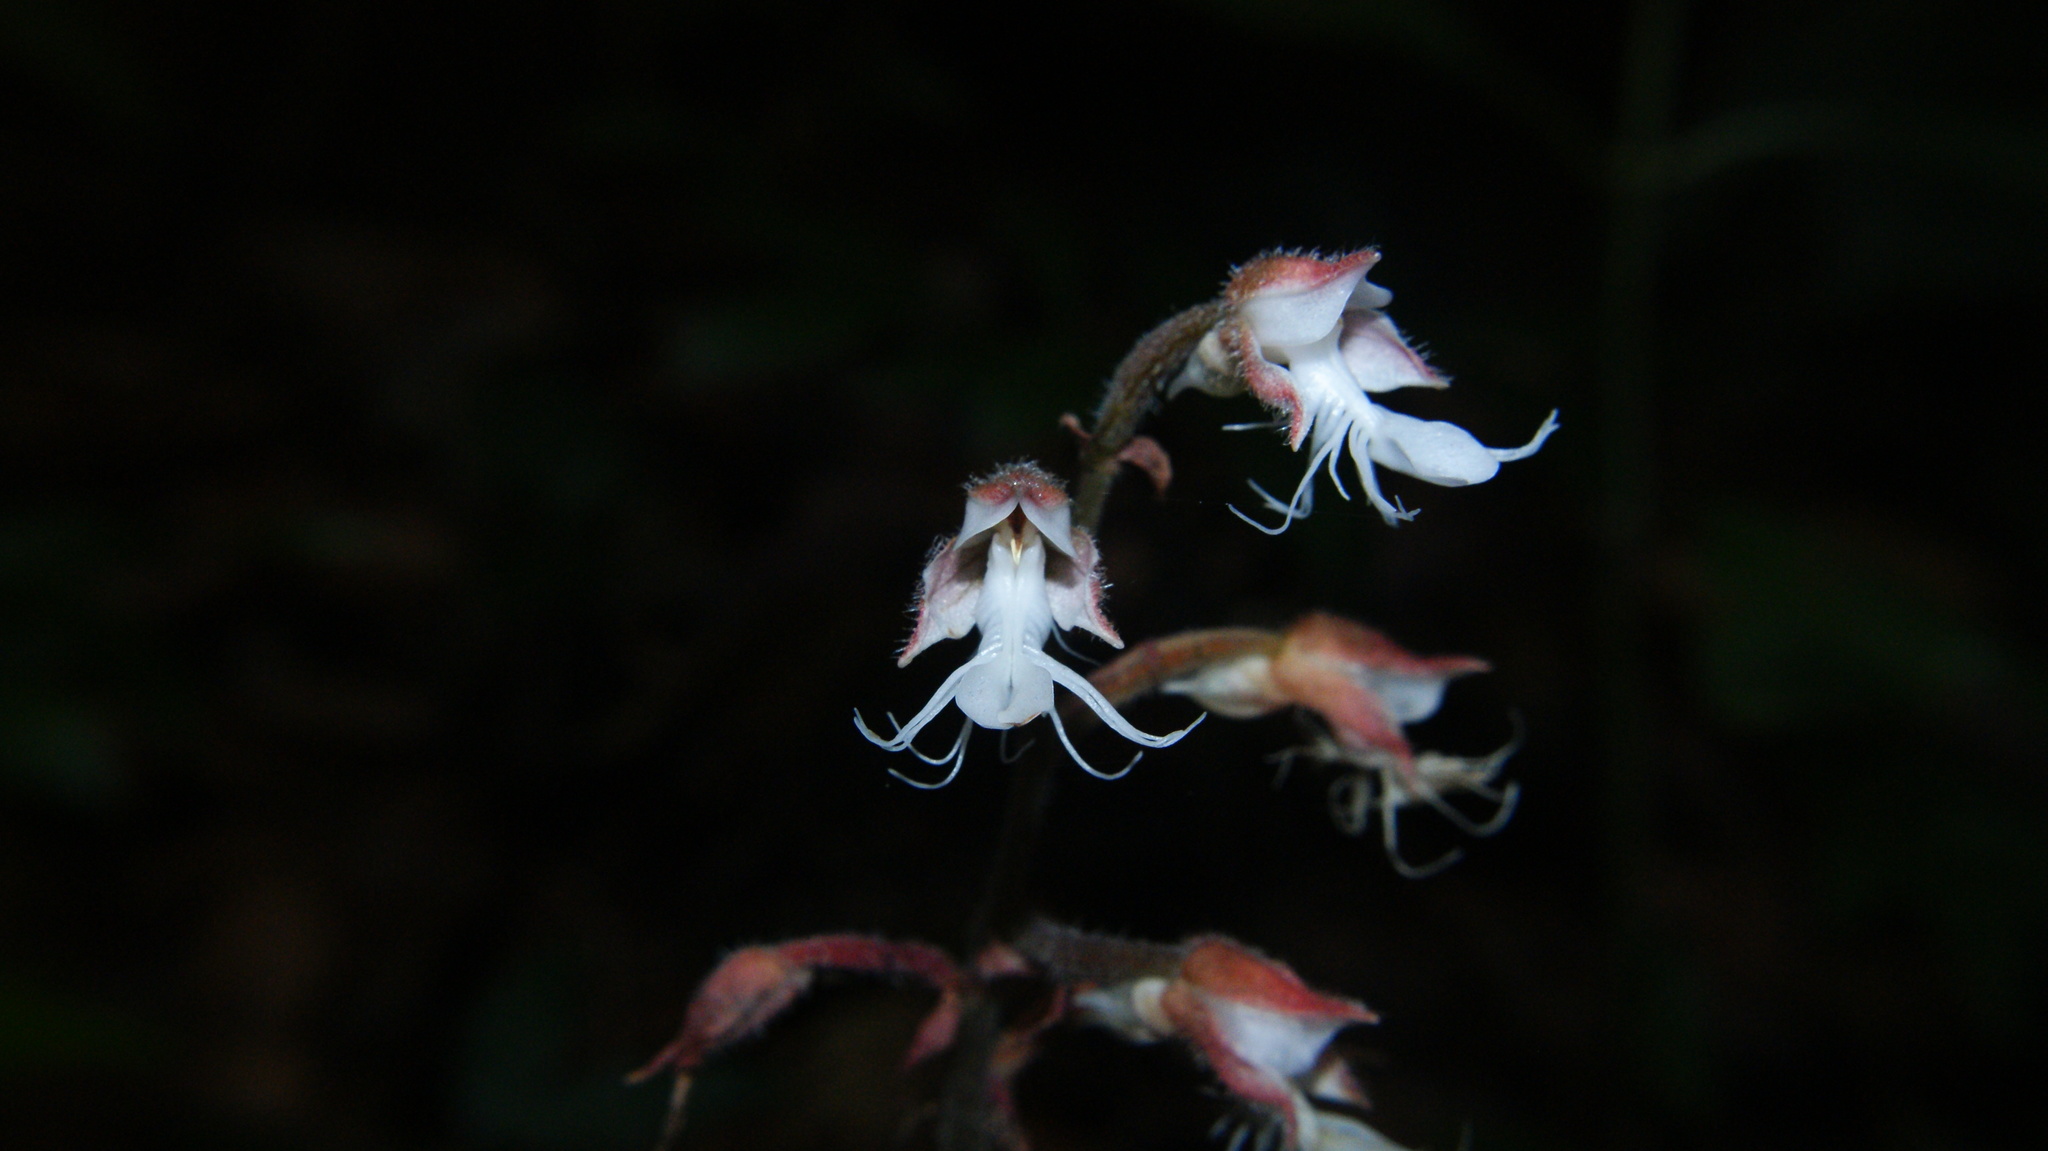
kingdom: Plantae
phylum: Tracheophyta
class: Liliopsida
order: Asparagales
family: Orchidaceae
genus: Anoectochilus
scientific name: Anoectochilus elatus
